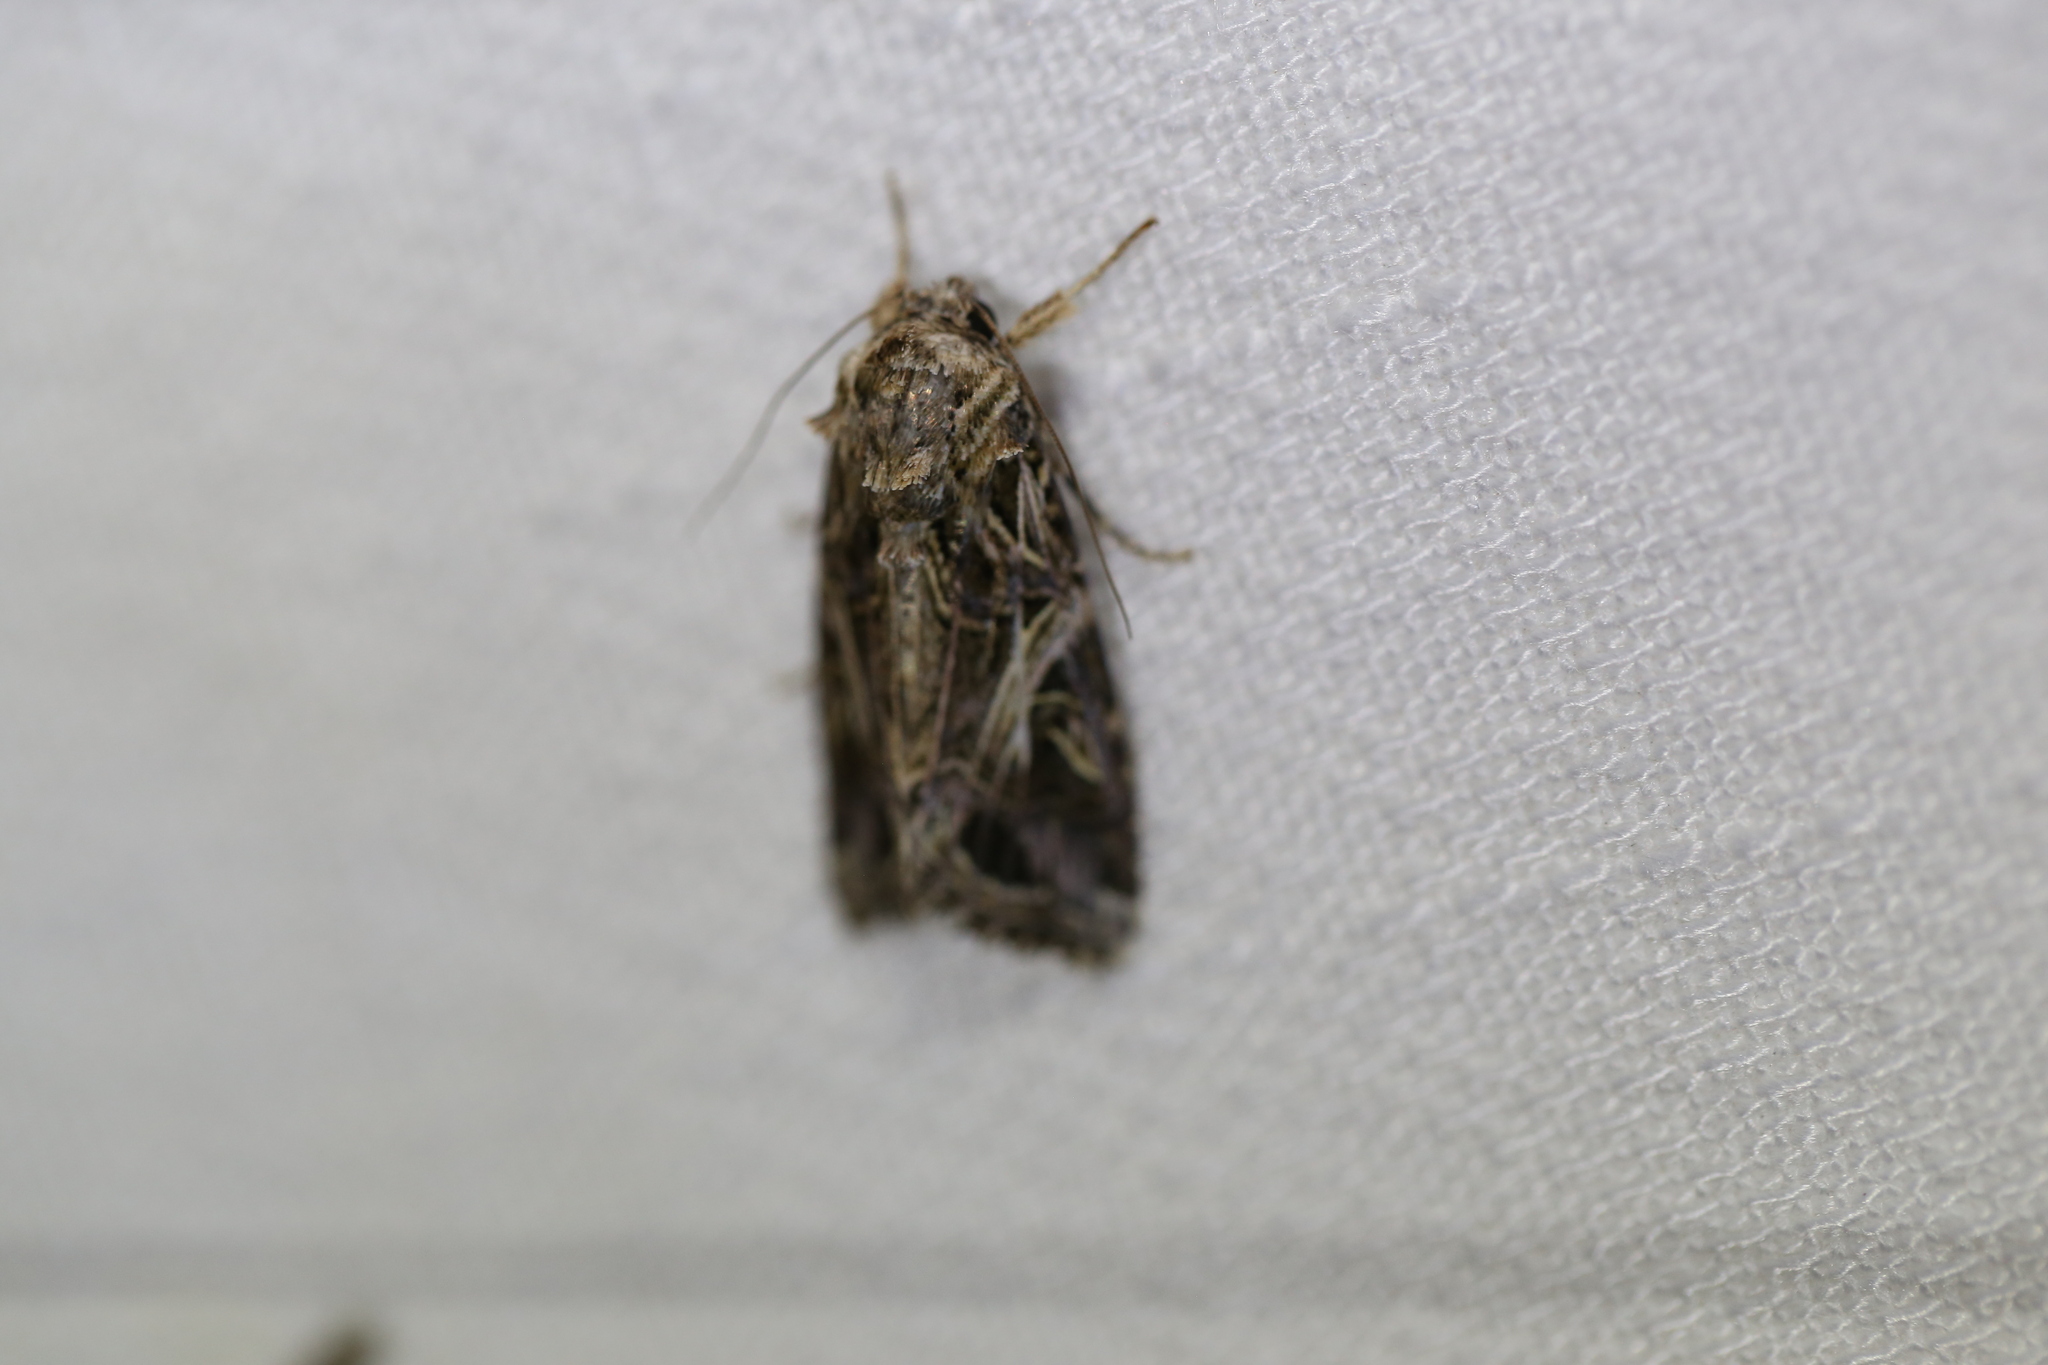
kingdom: Animalia
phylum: Arthropoda
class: Insecta
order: Lepidoptera
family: Noctuidae
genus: Spodoptera
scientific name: Spodoptera litura
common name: Asian cotton leafworm
